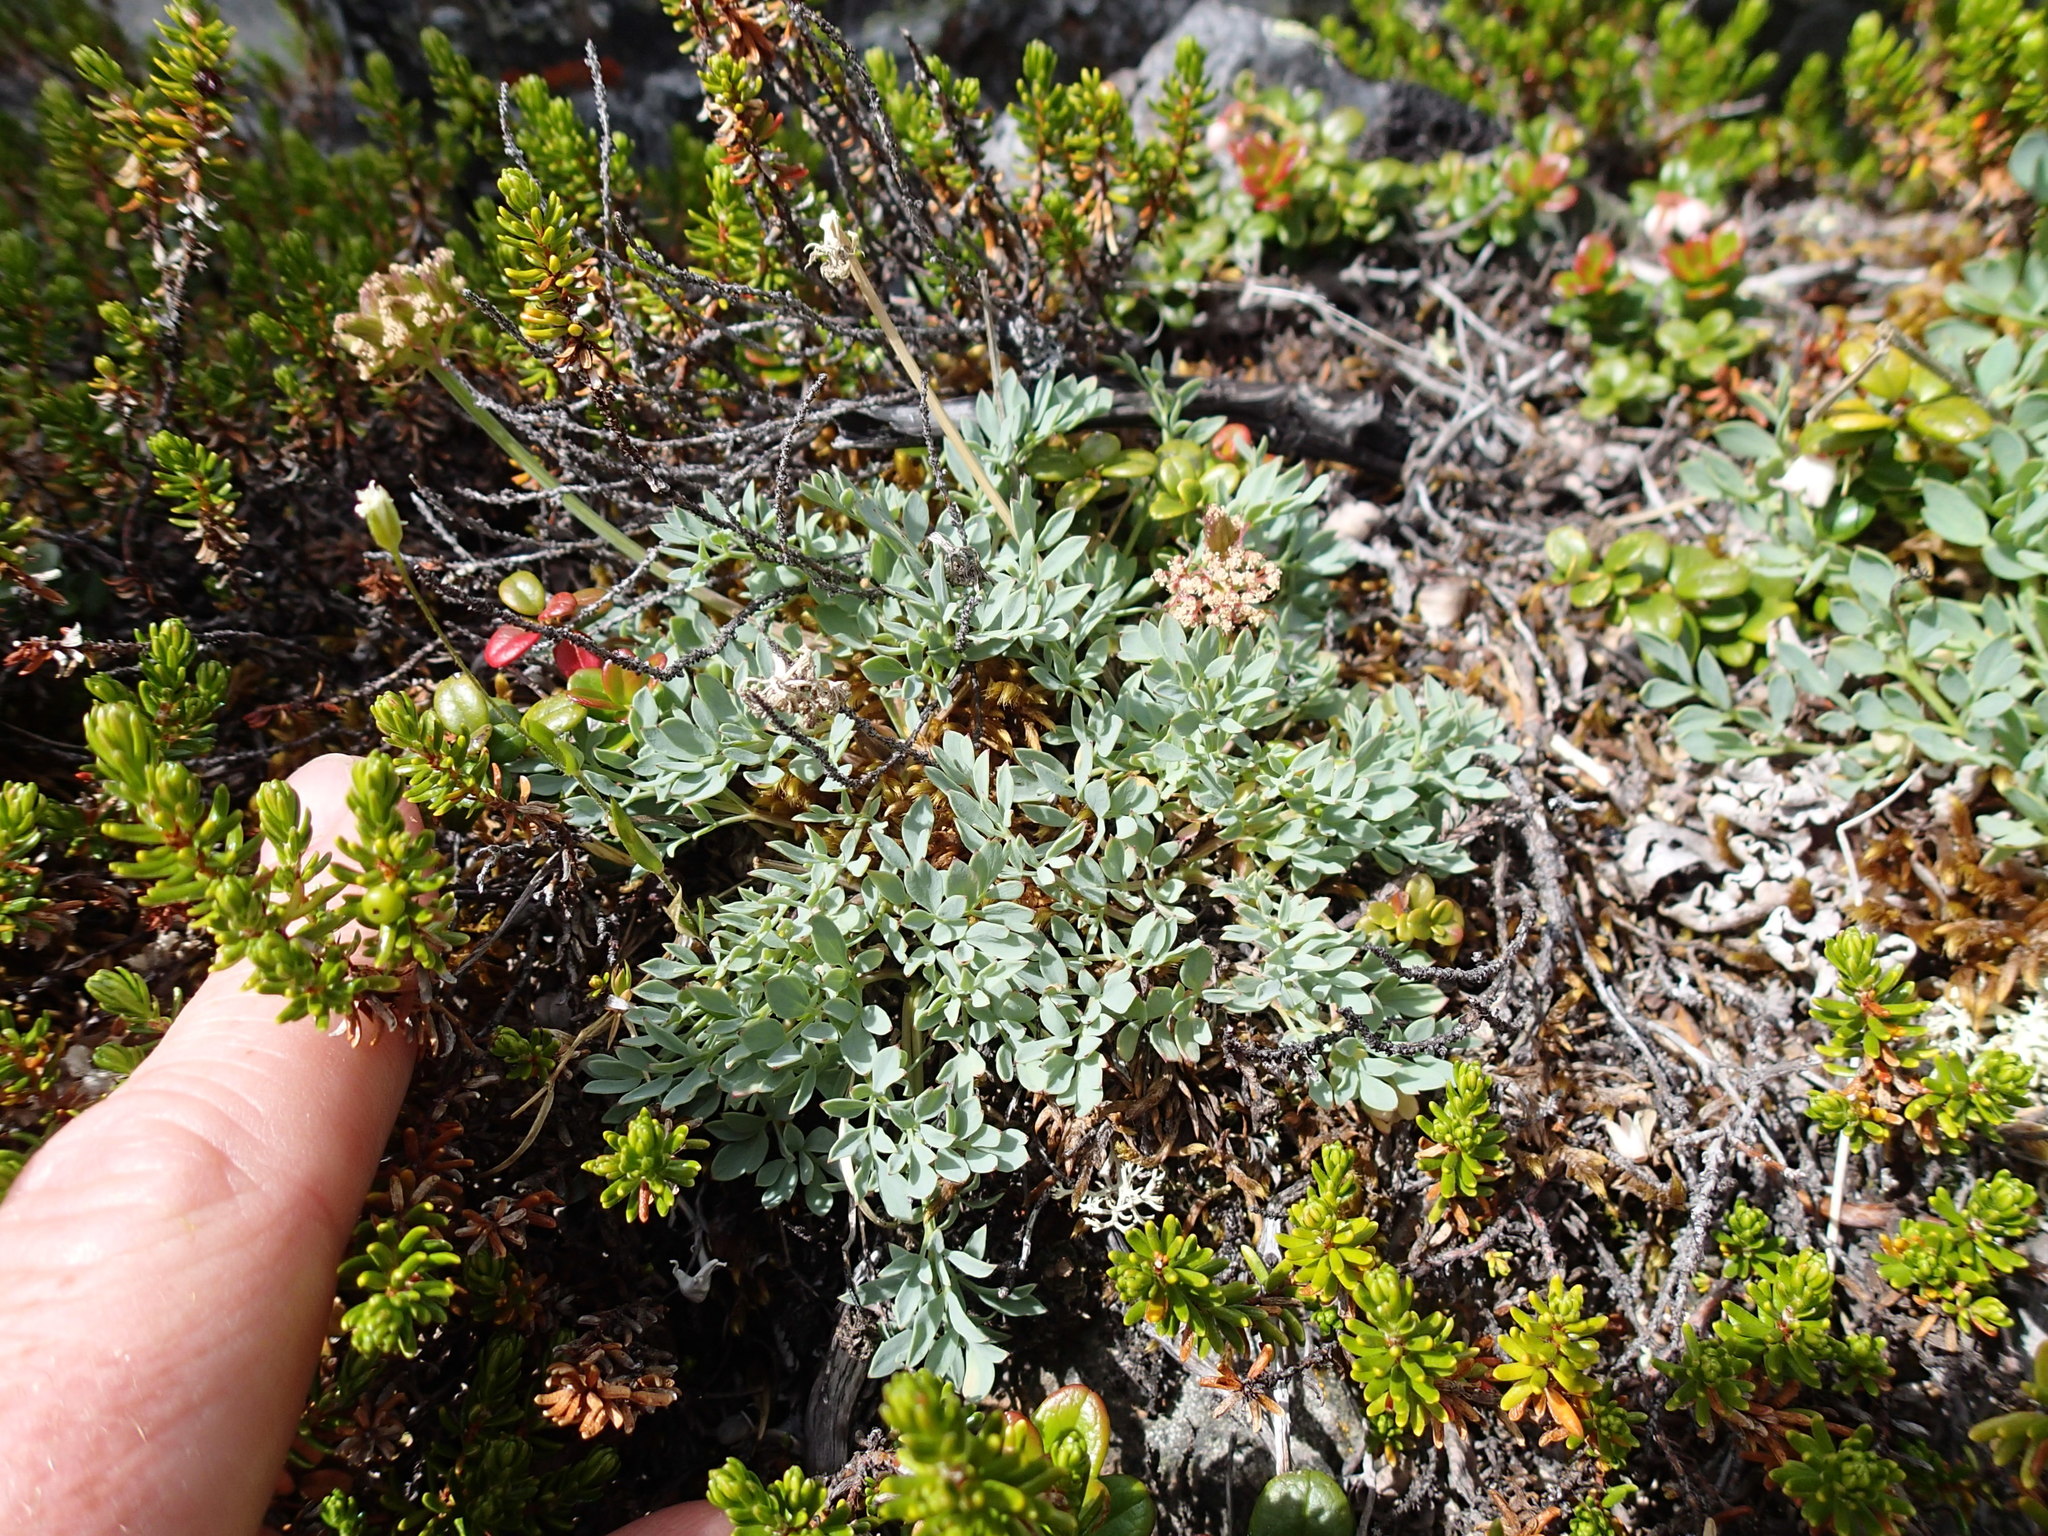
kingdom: Plantae
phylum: Tracheophyta
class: Magnoliopsida
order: Apiales
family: Apiaceae
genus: Podistera
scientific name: Podistera yukonensis
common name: Yukon podistera
